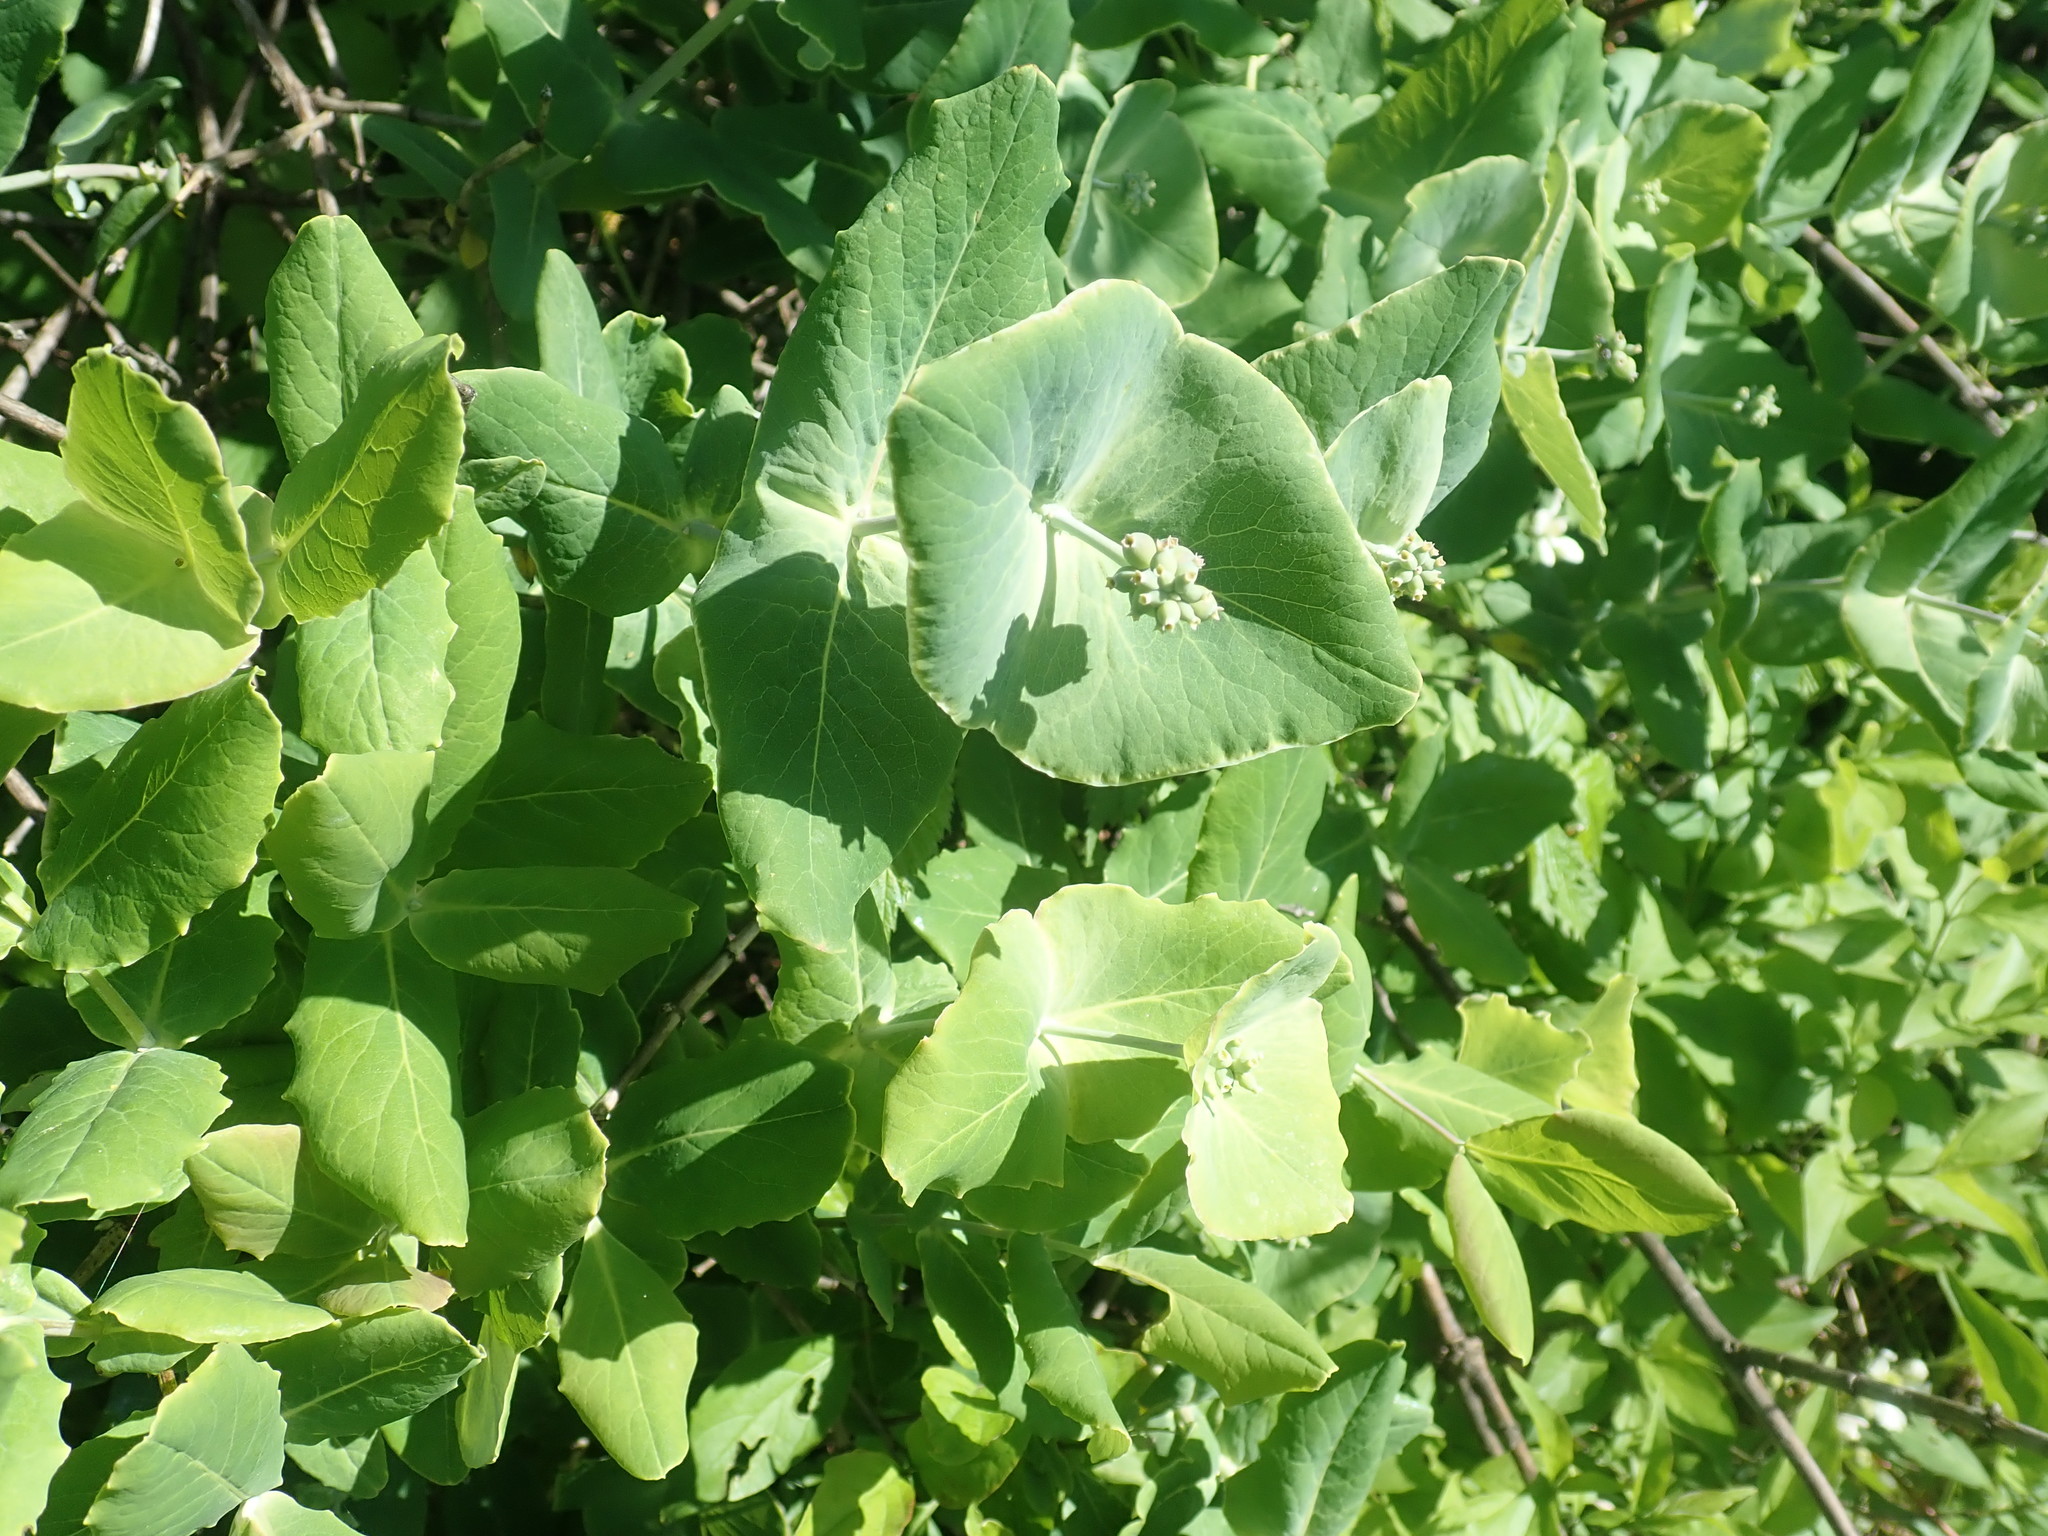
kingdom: Plantae
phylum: Tracheophyta
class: Magnoliopsida
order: Dipsacales
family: Caprifoliaceae
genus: Lonicera
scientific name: Lonicera dioica
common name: Limber honeysuckle
